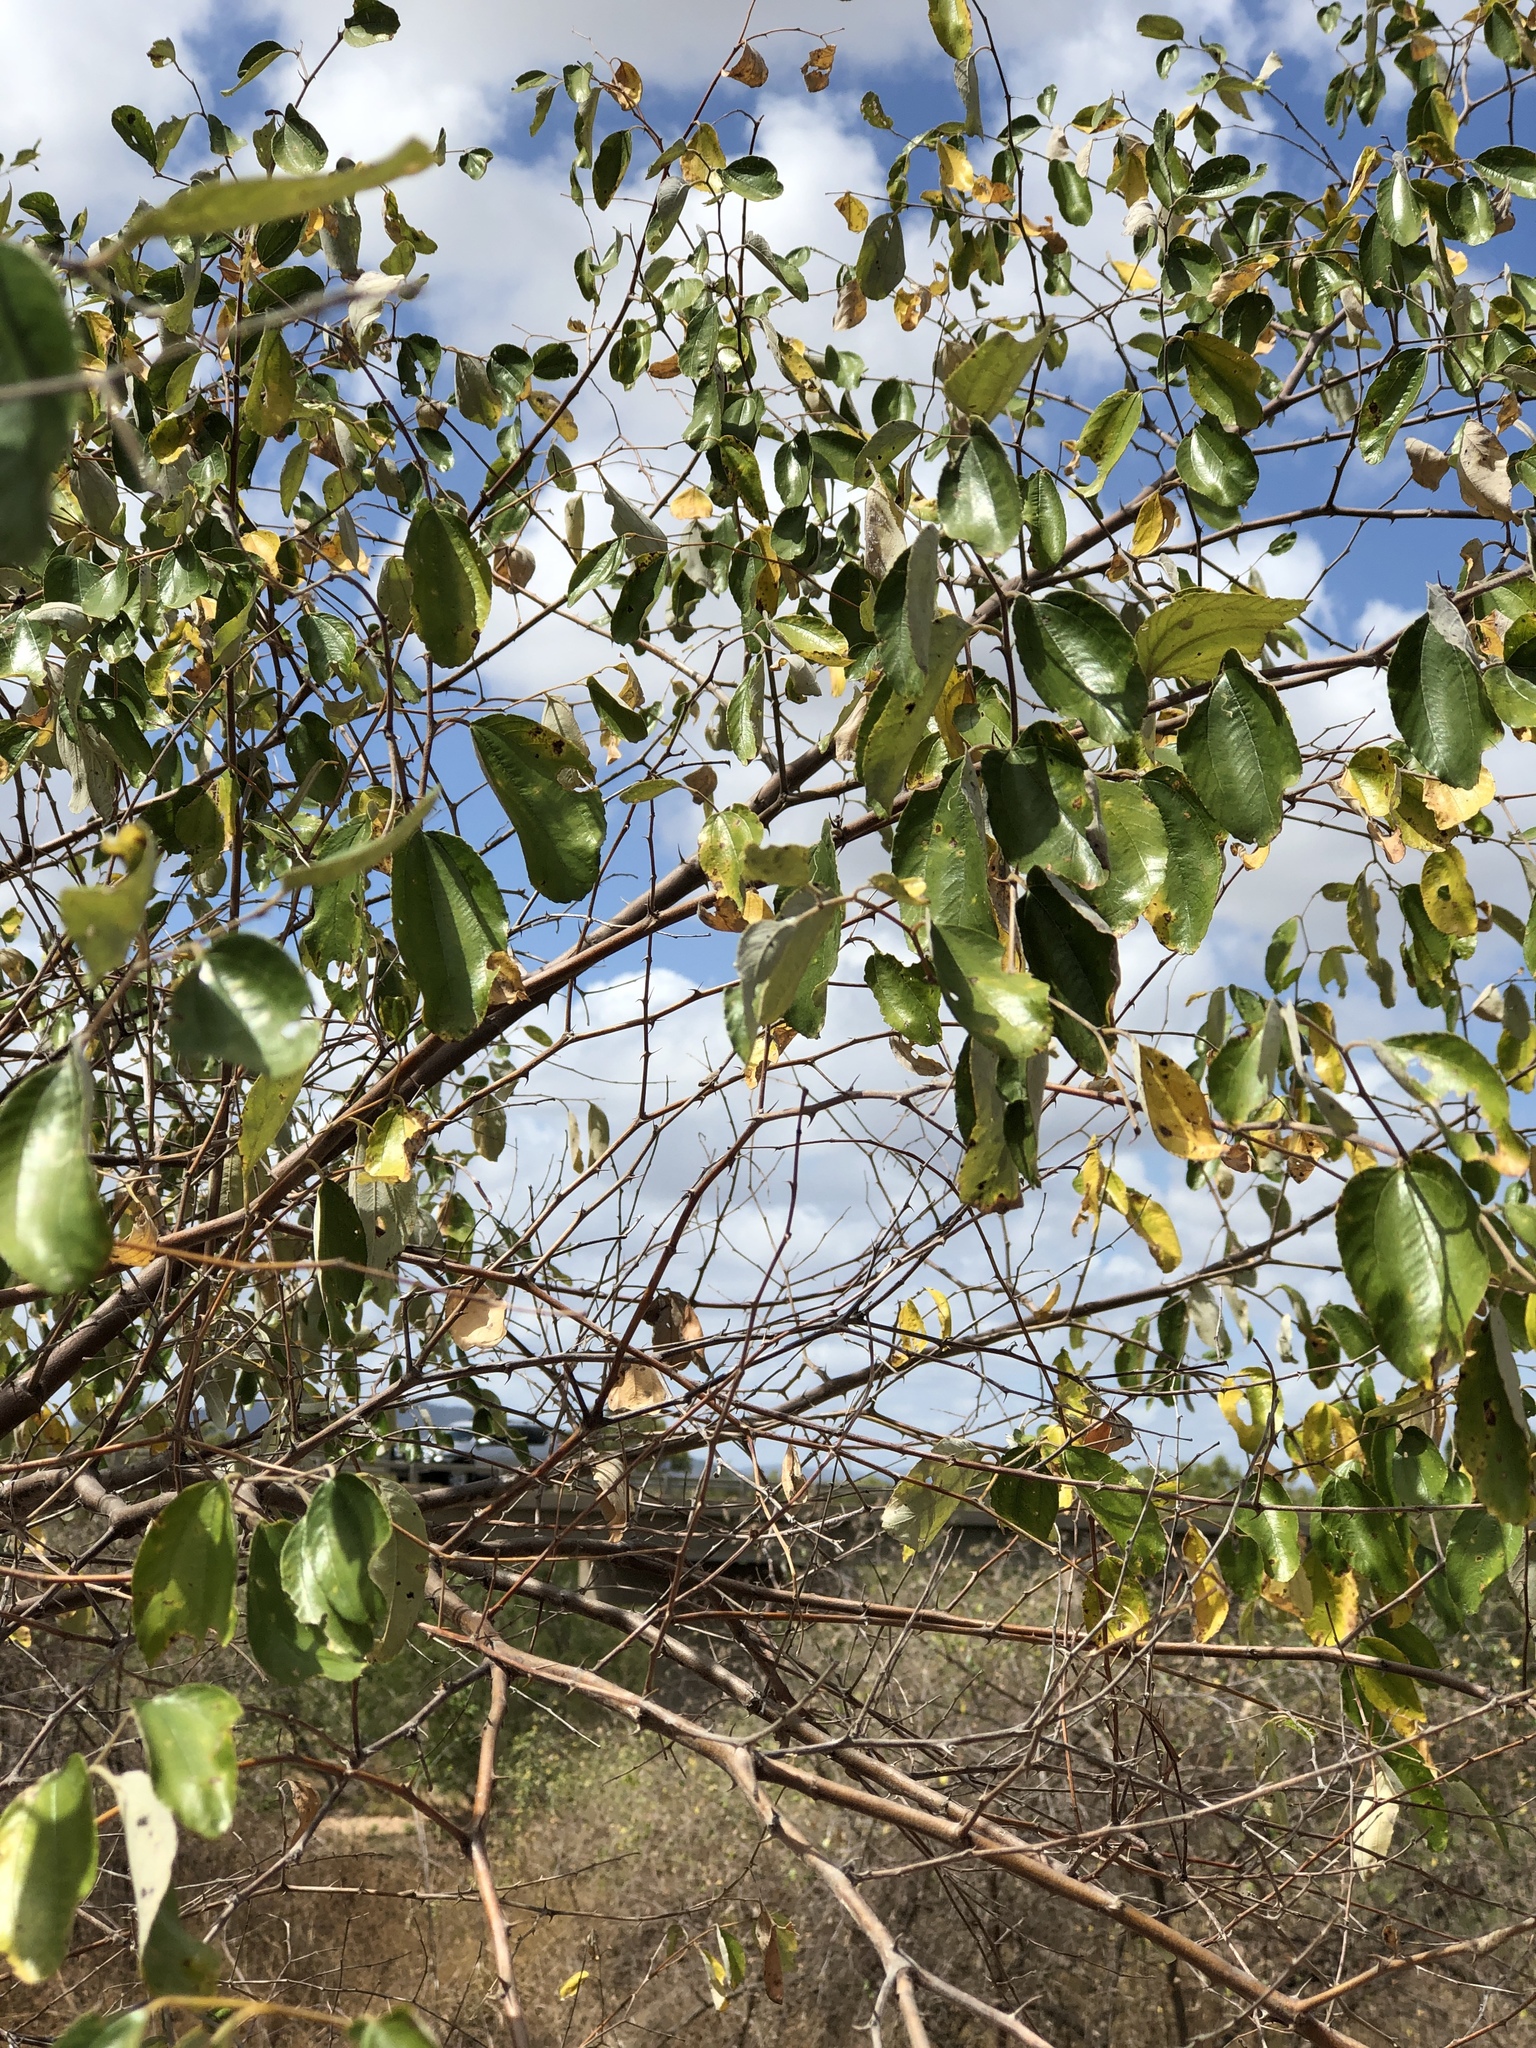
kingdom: Plantae
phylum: Tracheophyta
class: Magnoliopsida
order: Rosales
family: Rhamnaceae
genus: Ziziphus
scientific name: Ziziphus mauritiana
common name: Indian jujube
